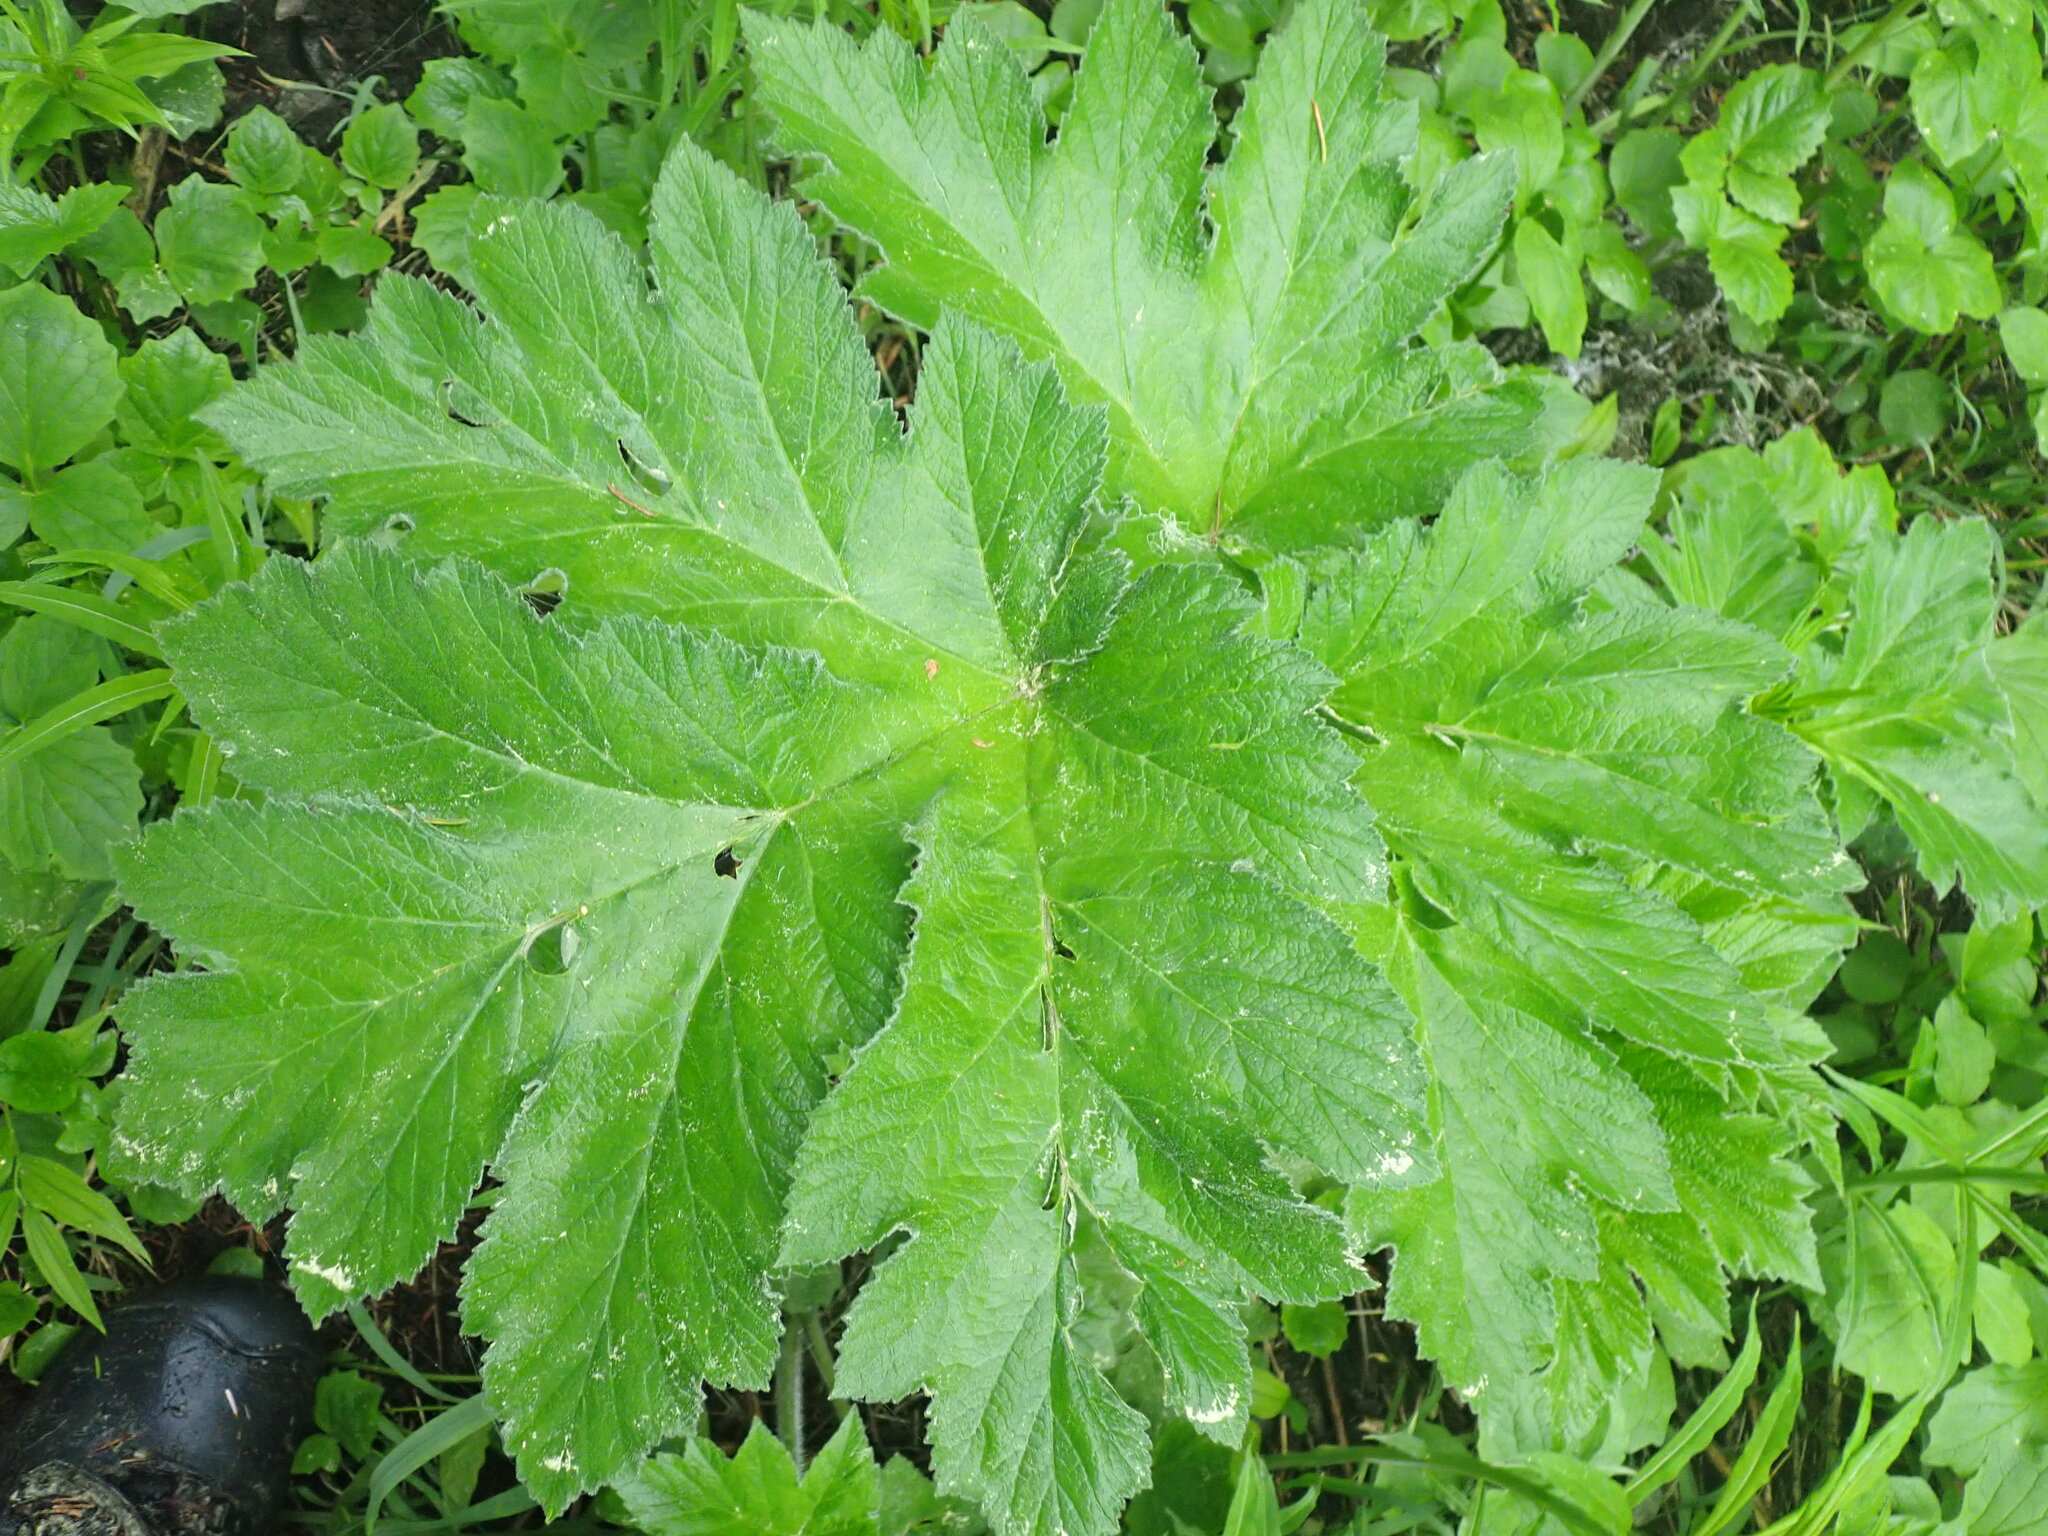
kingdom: Plantae
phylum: Tracheophyta
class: Magnoliopsida
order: Apiales
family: Apiaceae
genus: Heracleum
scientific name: Heracleum maximum
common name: American cow parsnip
